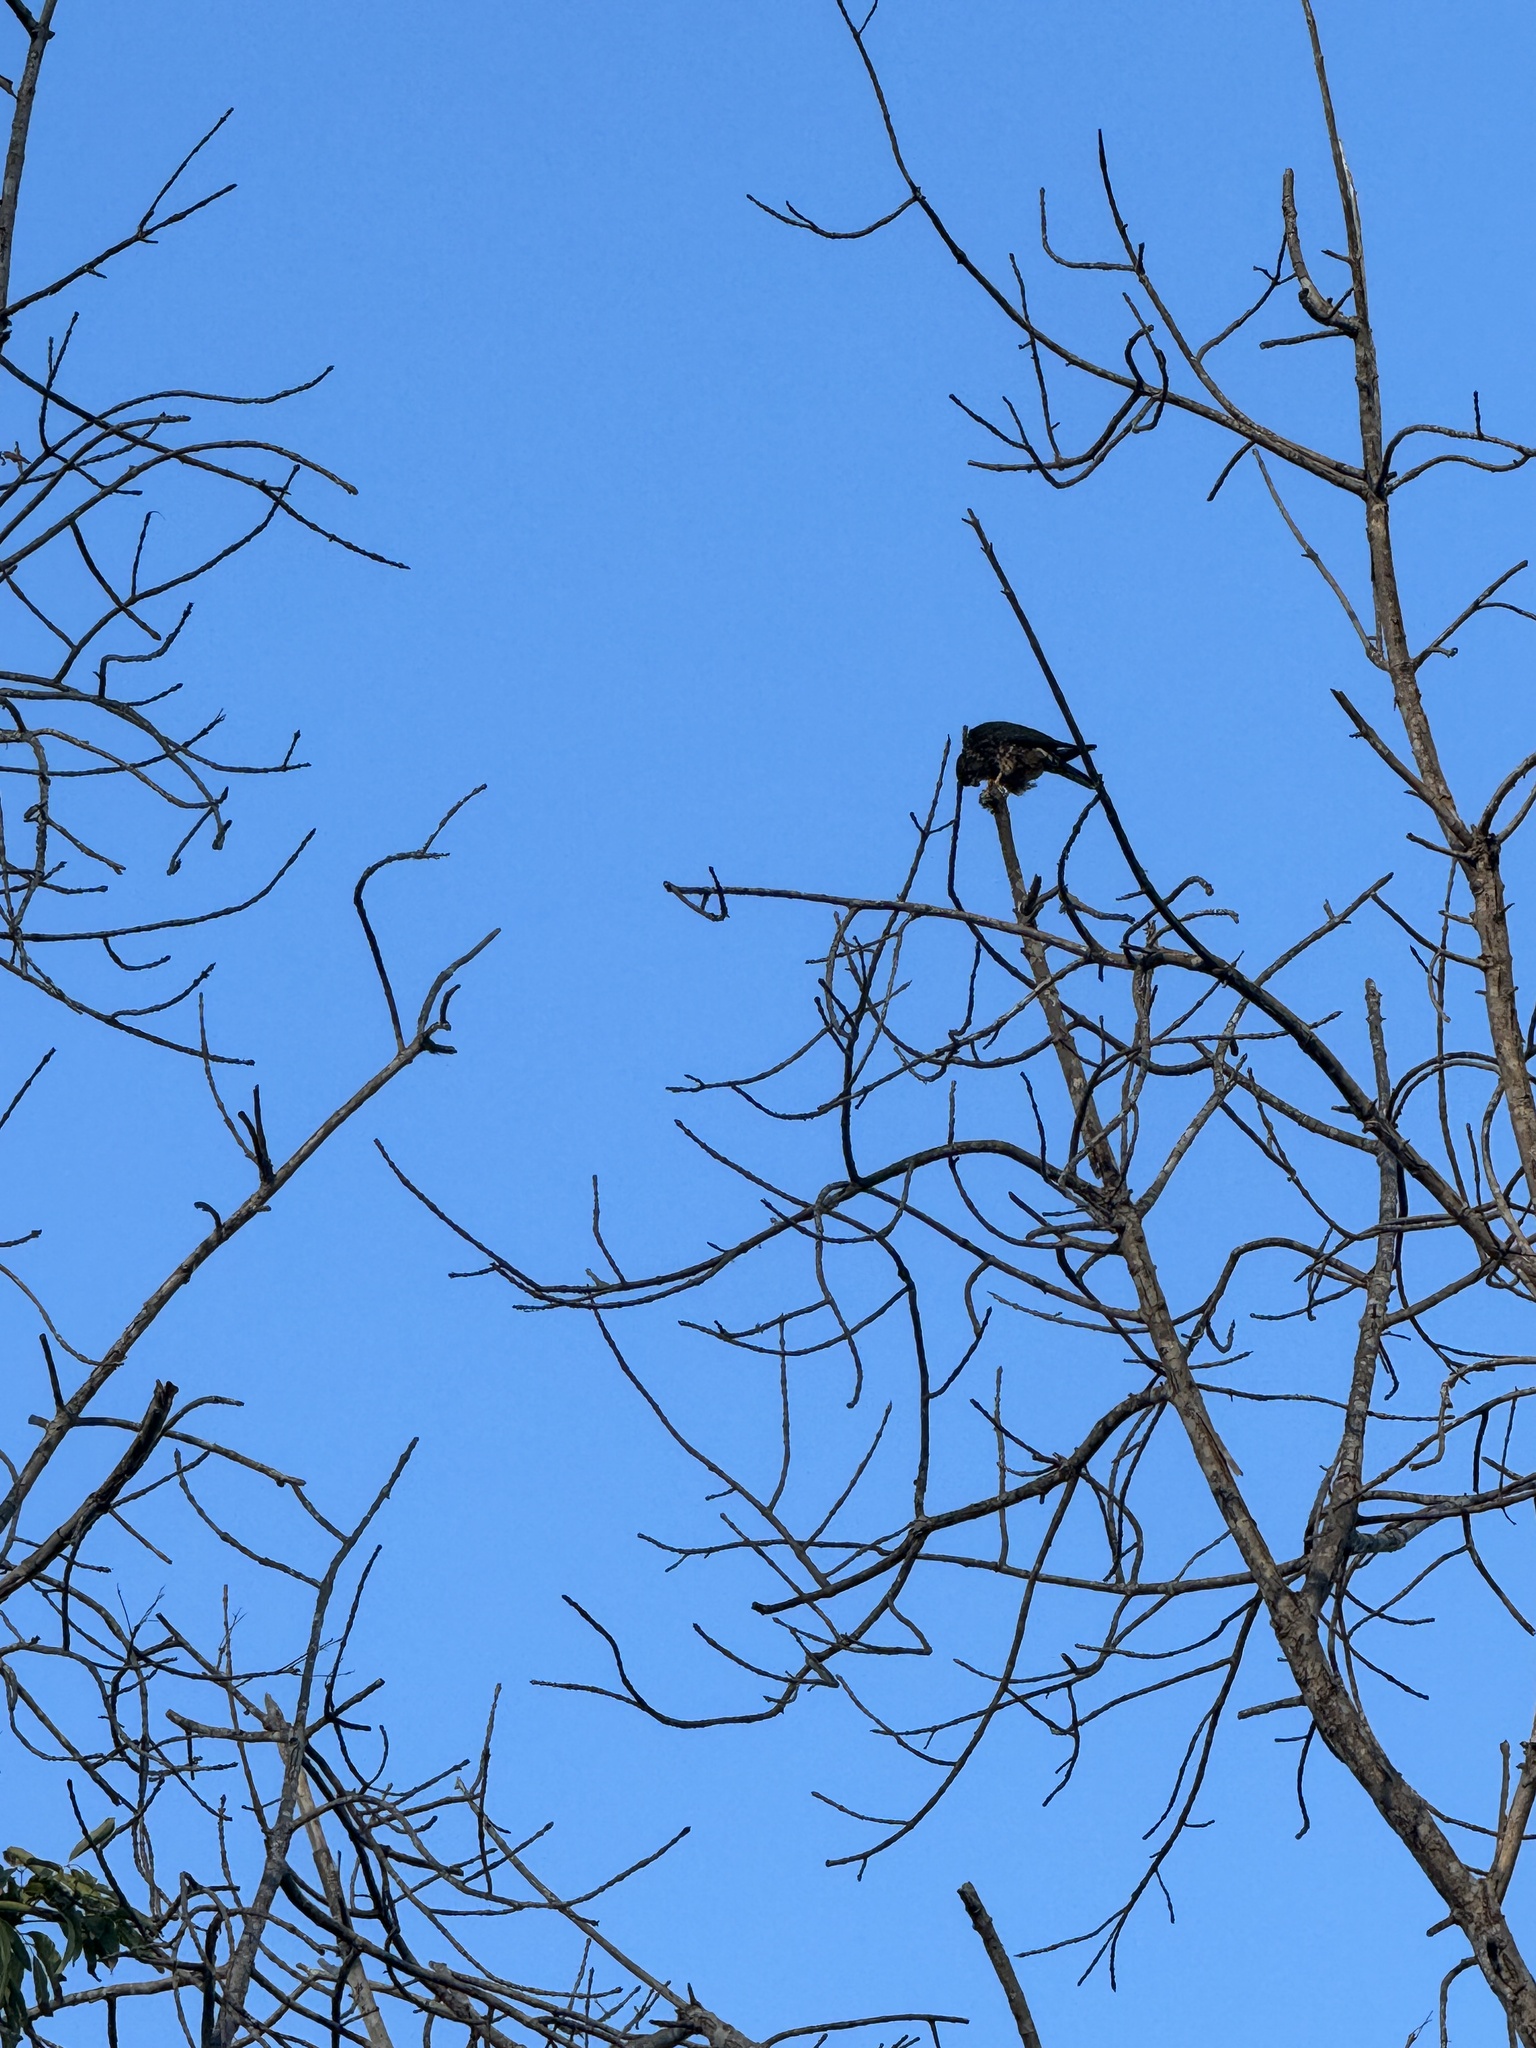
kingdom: Animalia
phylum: Chordata
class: Aves
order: Falconiformes
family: Falconidae
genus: Falco
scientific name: Falco columbarius
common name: Merlin
